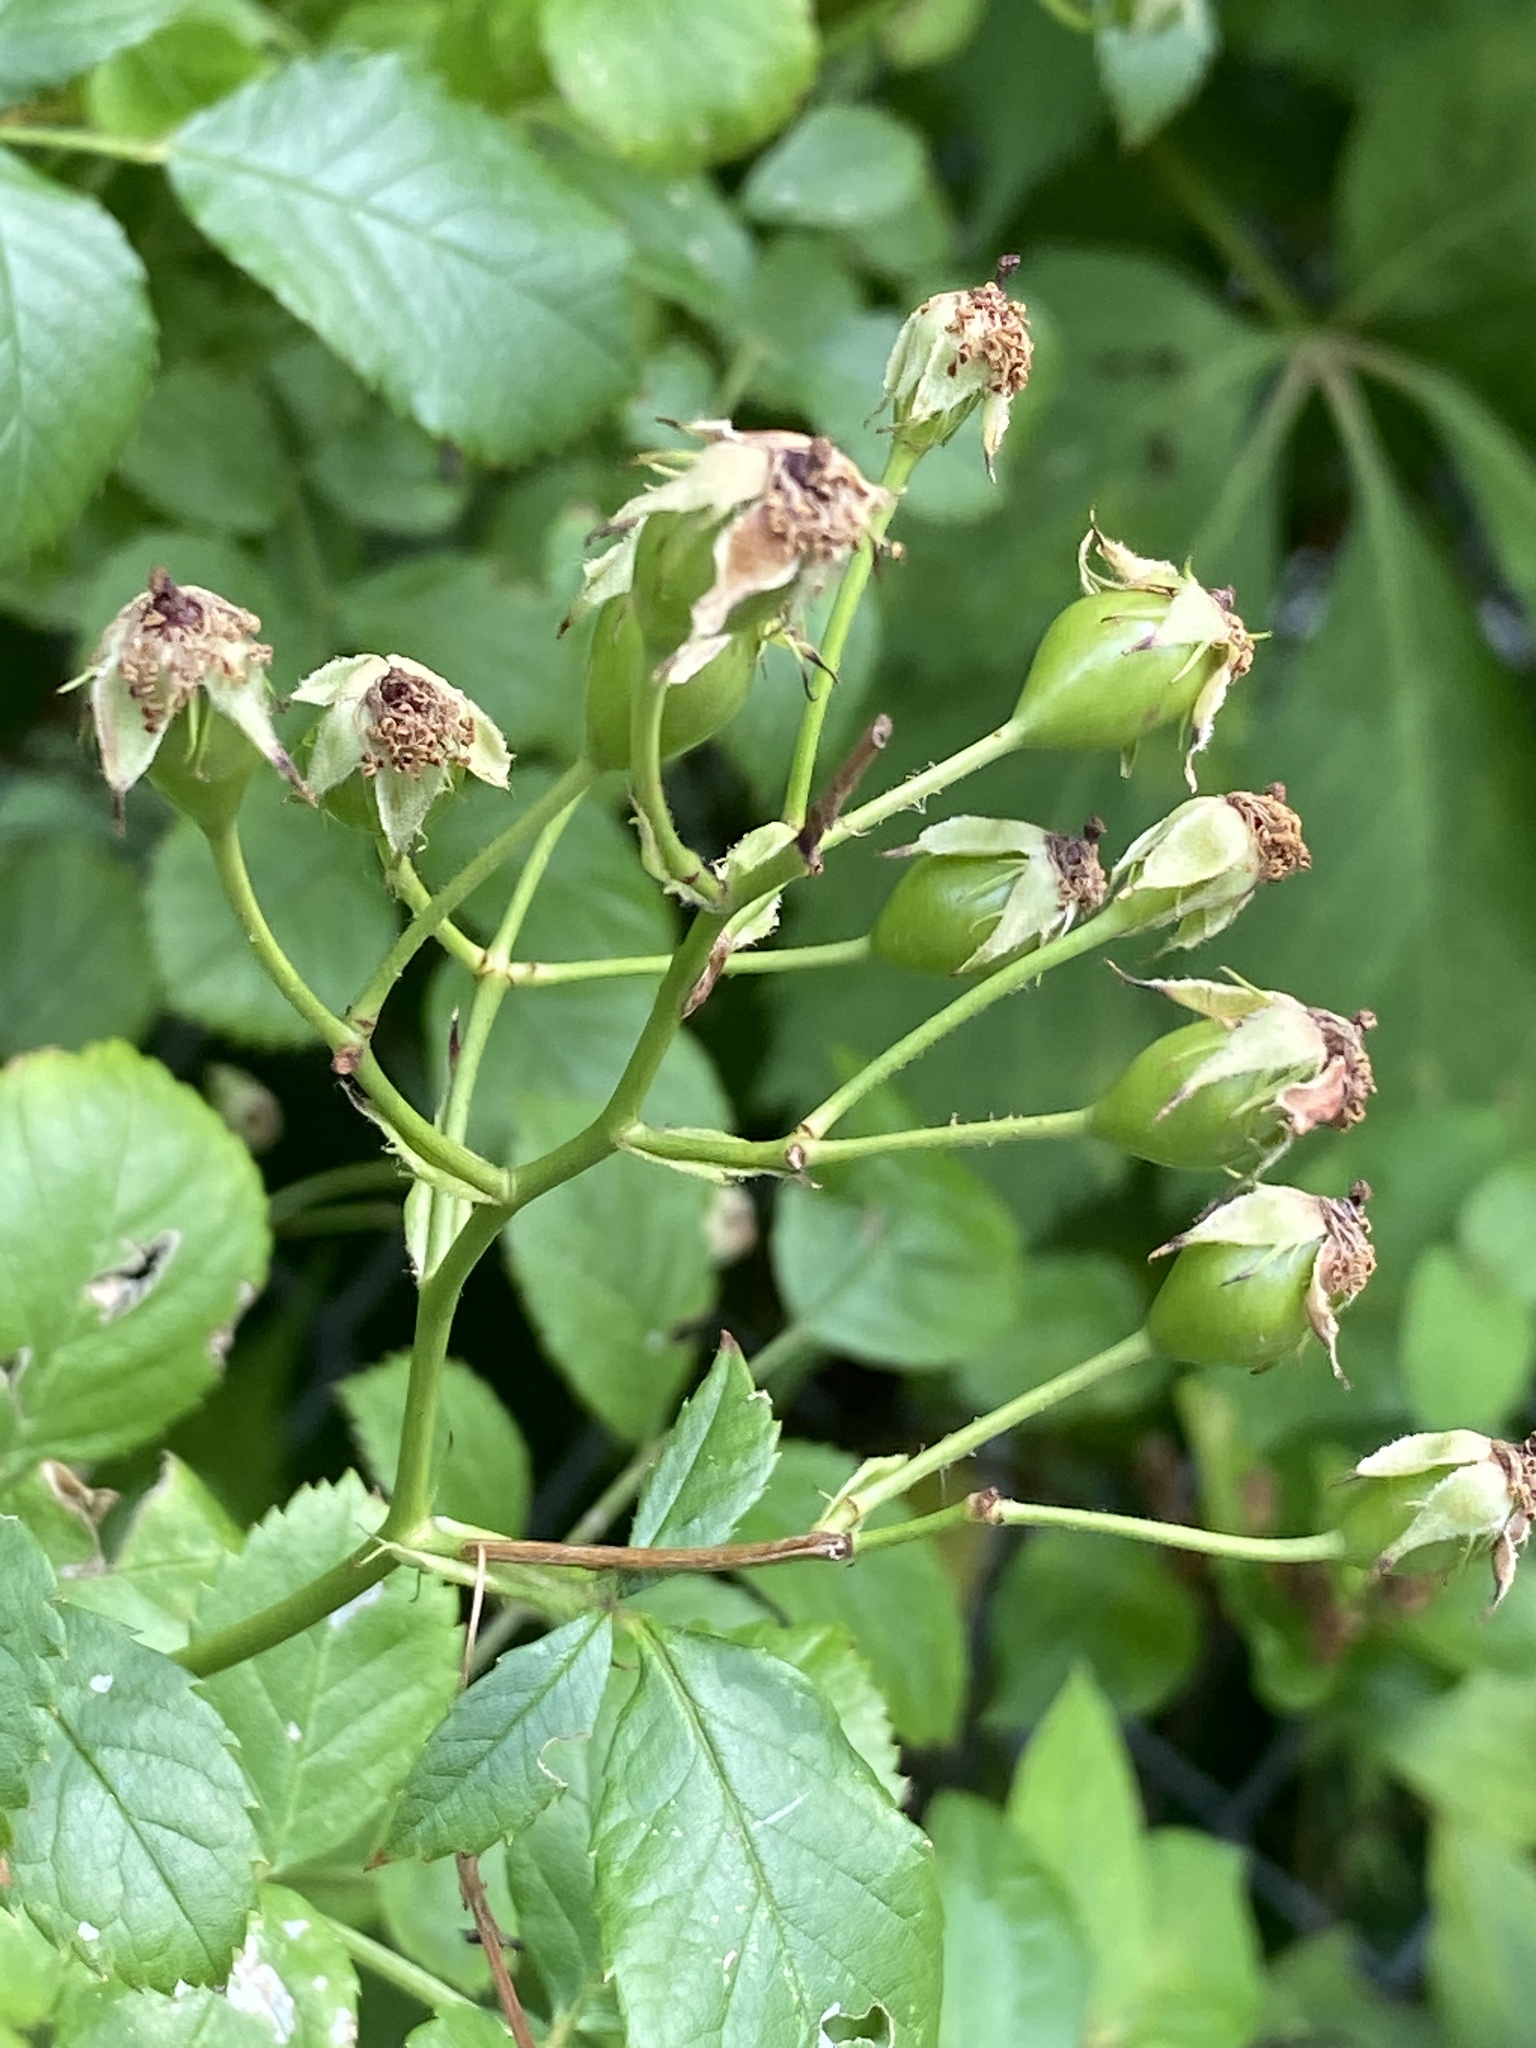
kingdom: Plantae
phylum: Tracheophyta
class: Magnoliopsida
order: Rosales
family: Rosaceae
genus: Rosa
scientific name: Rosa multiflora
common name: Multiflora rose
